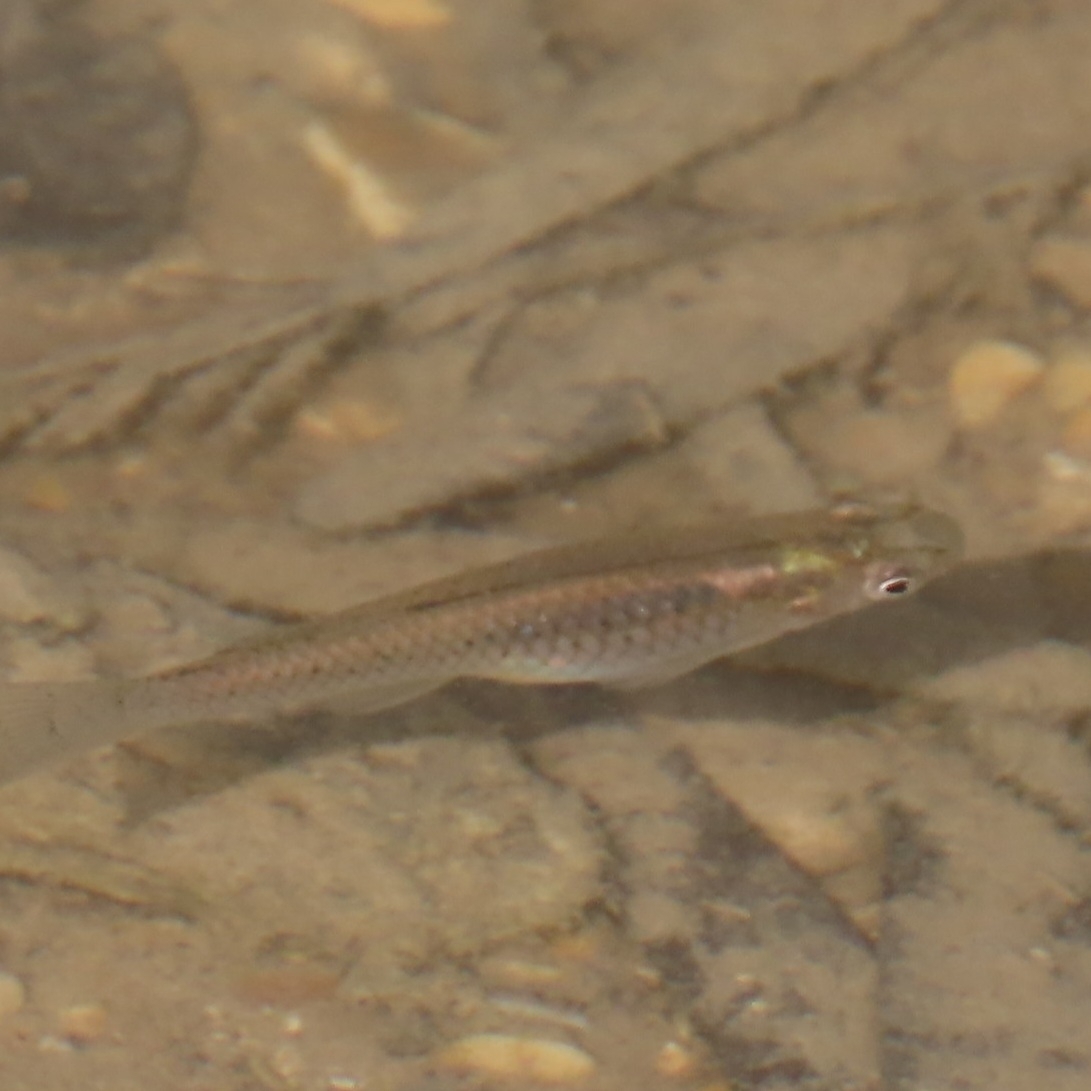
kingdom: Animalia
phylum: Chordata
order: Cyprinodontiformes
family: Poeciliidae
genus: Gambusia
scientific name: Gambusia affinis
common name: Mosquitofish
